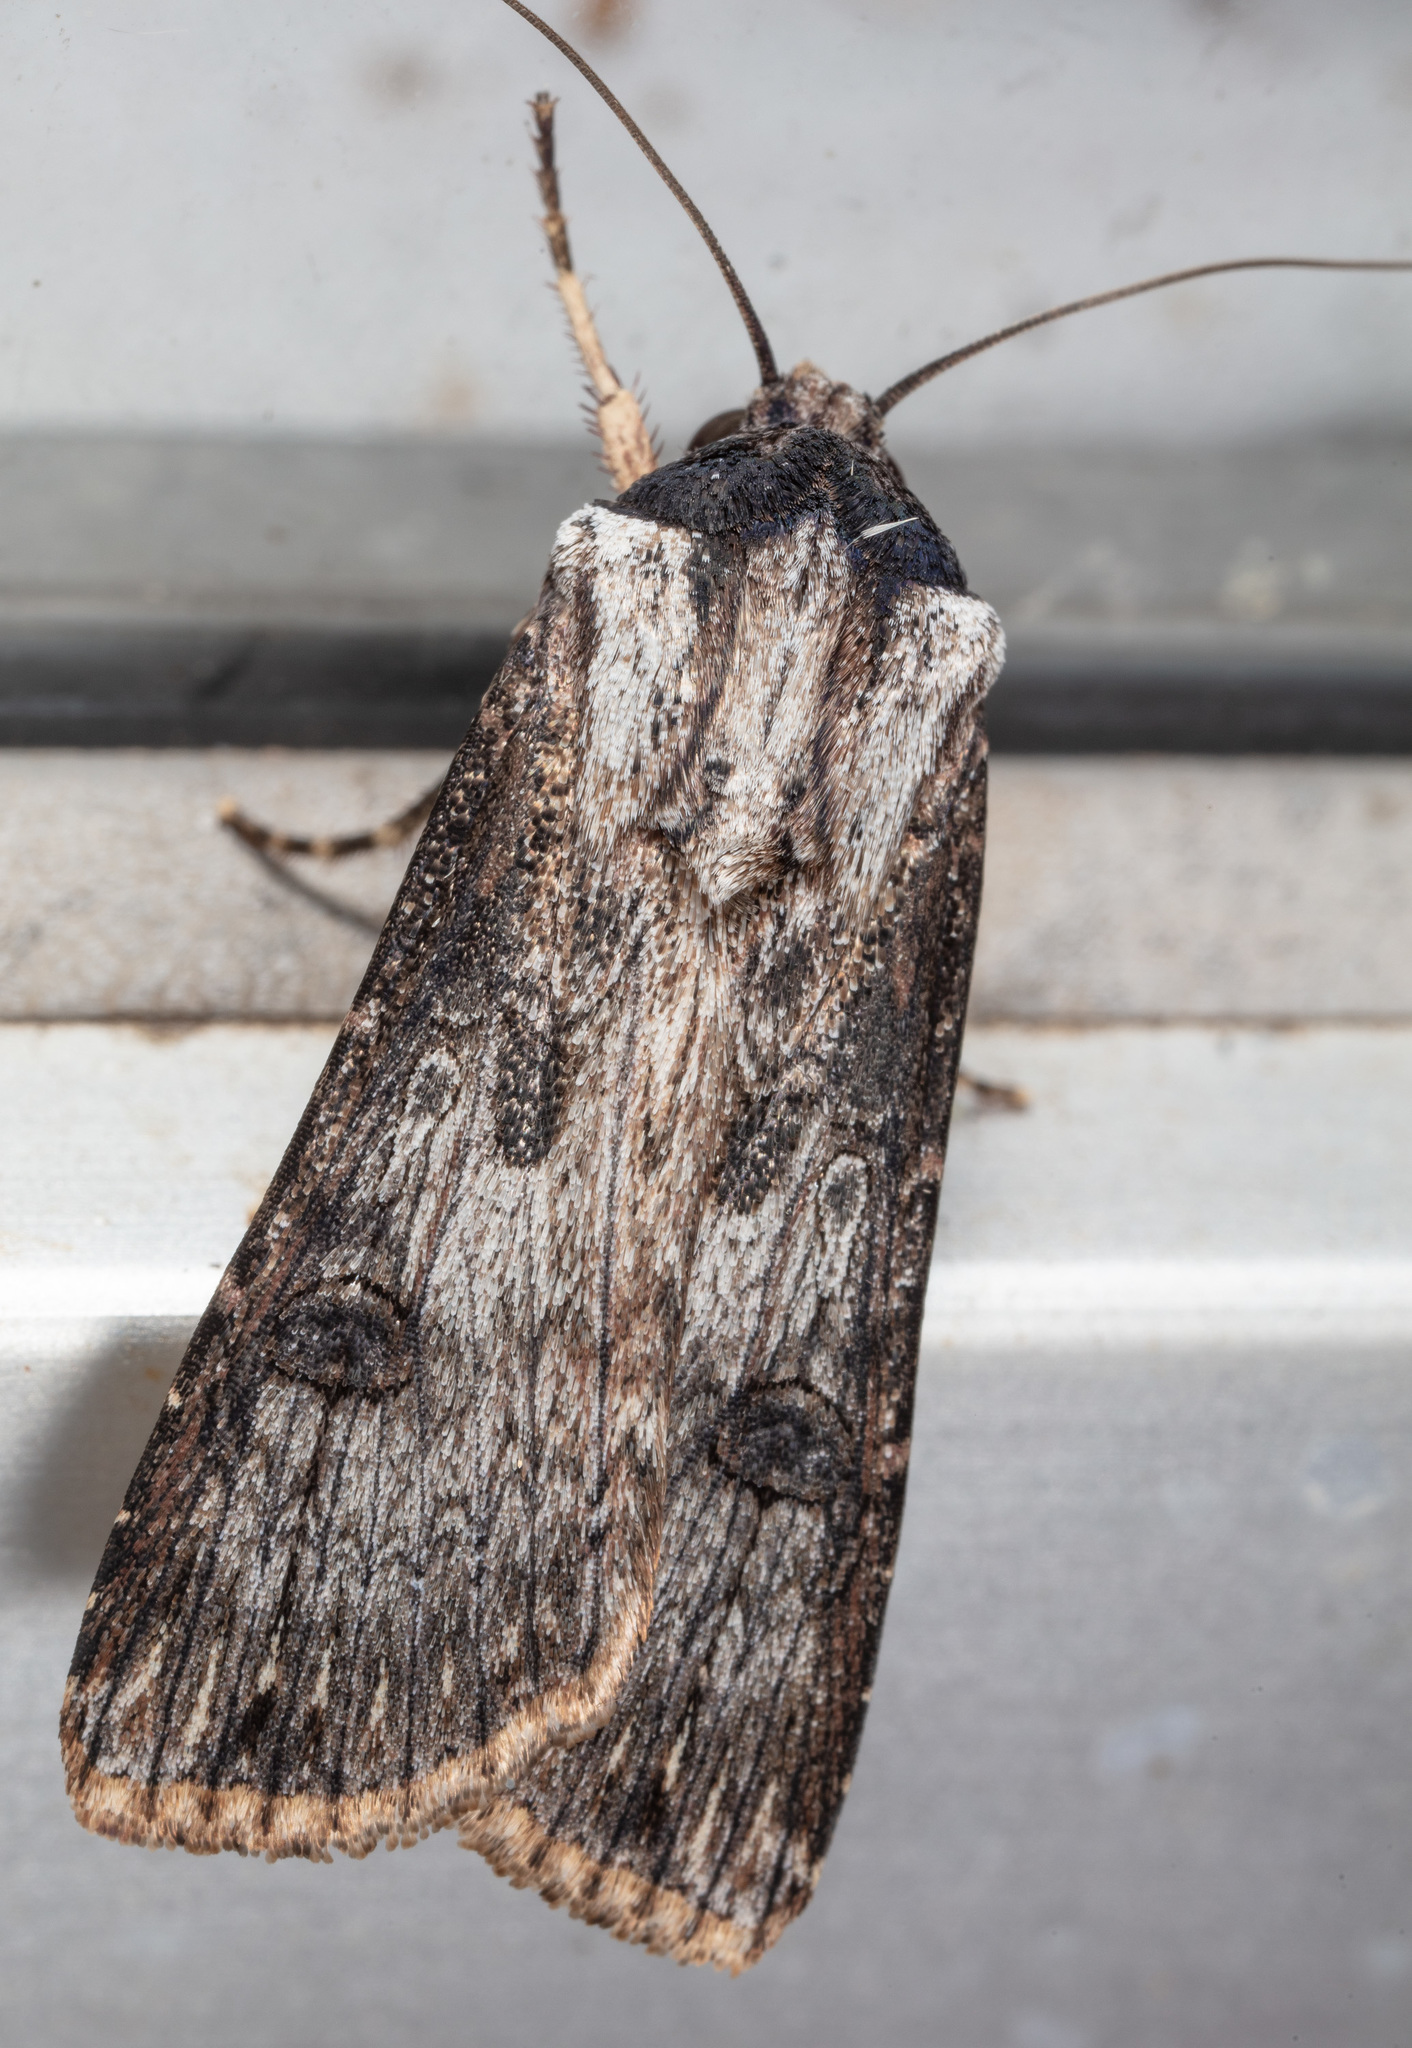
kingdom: Animalia
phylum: Arthropoda
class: Insecta
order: Lepidoptera
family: Noctuidae
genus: Agrotis
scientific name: Agrotis malefida
